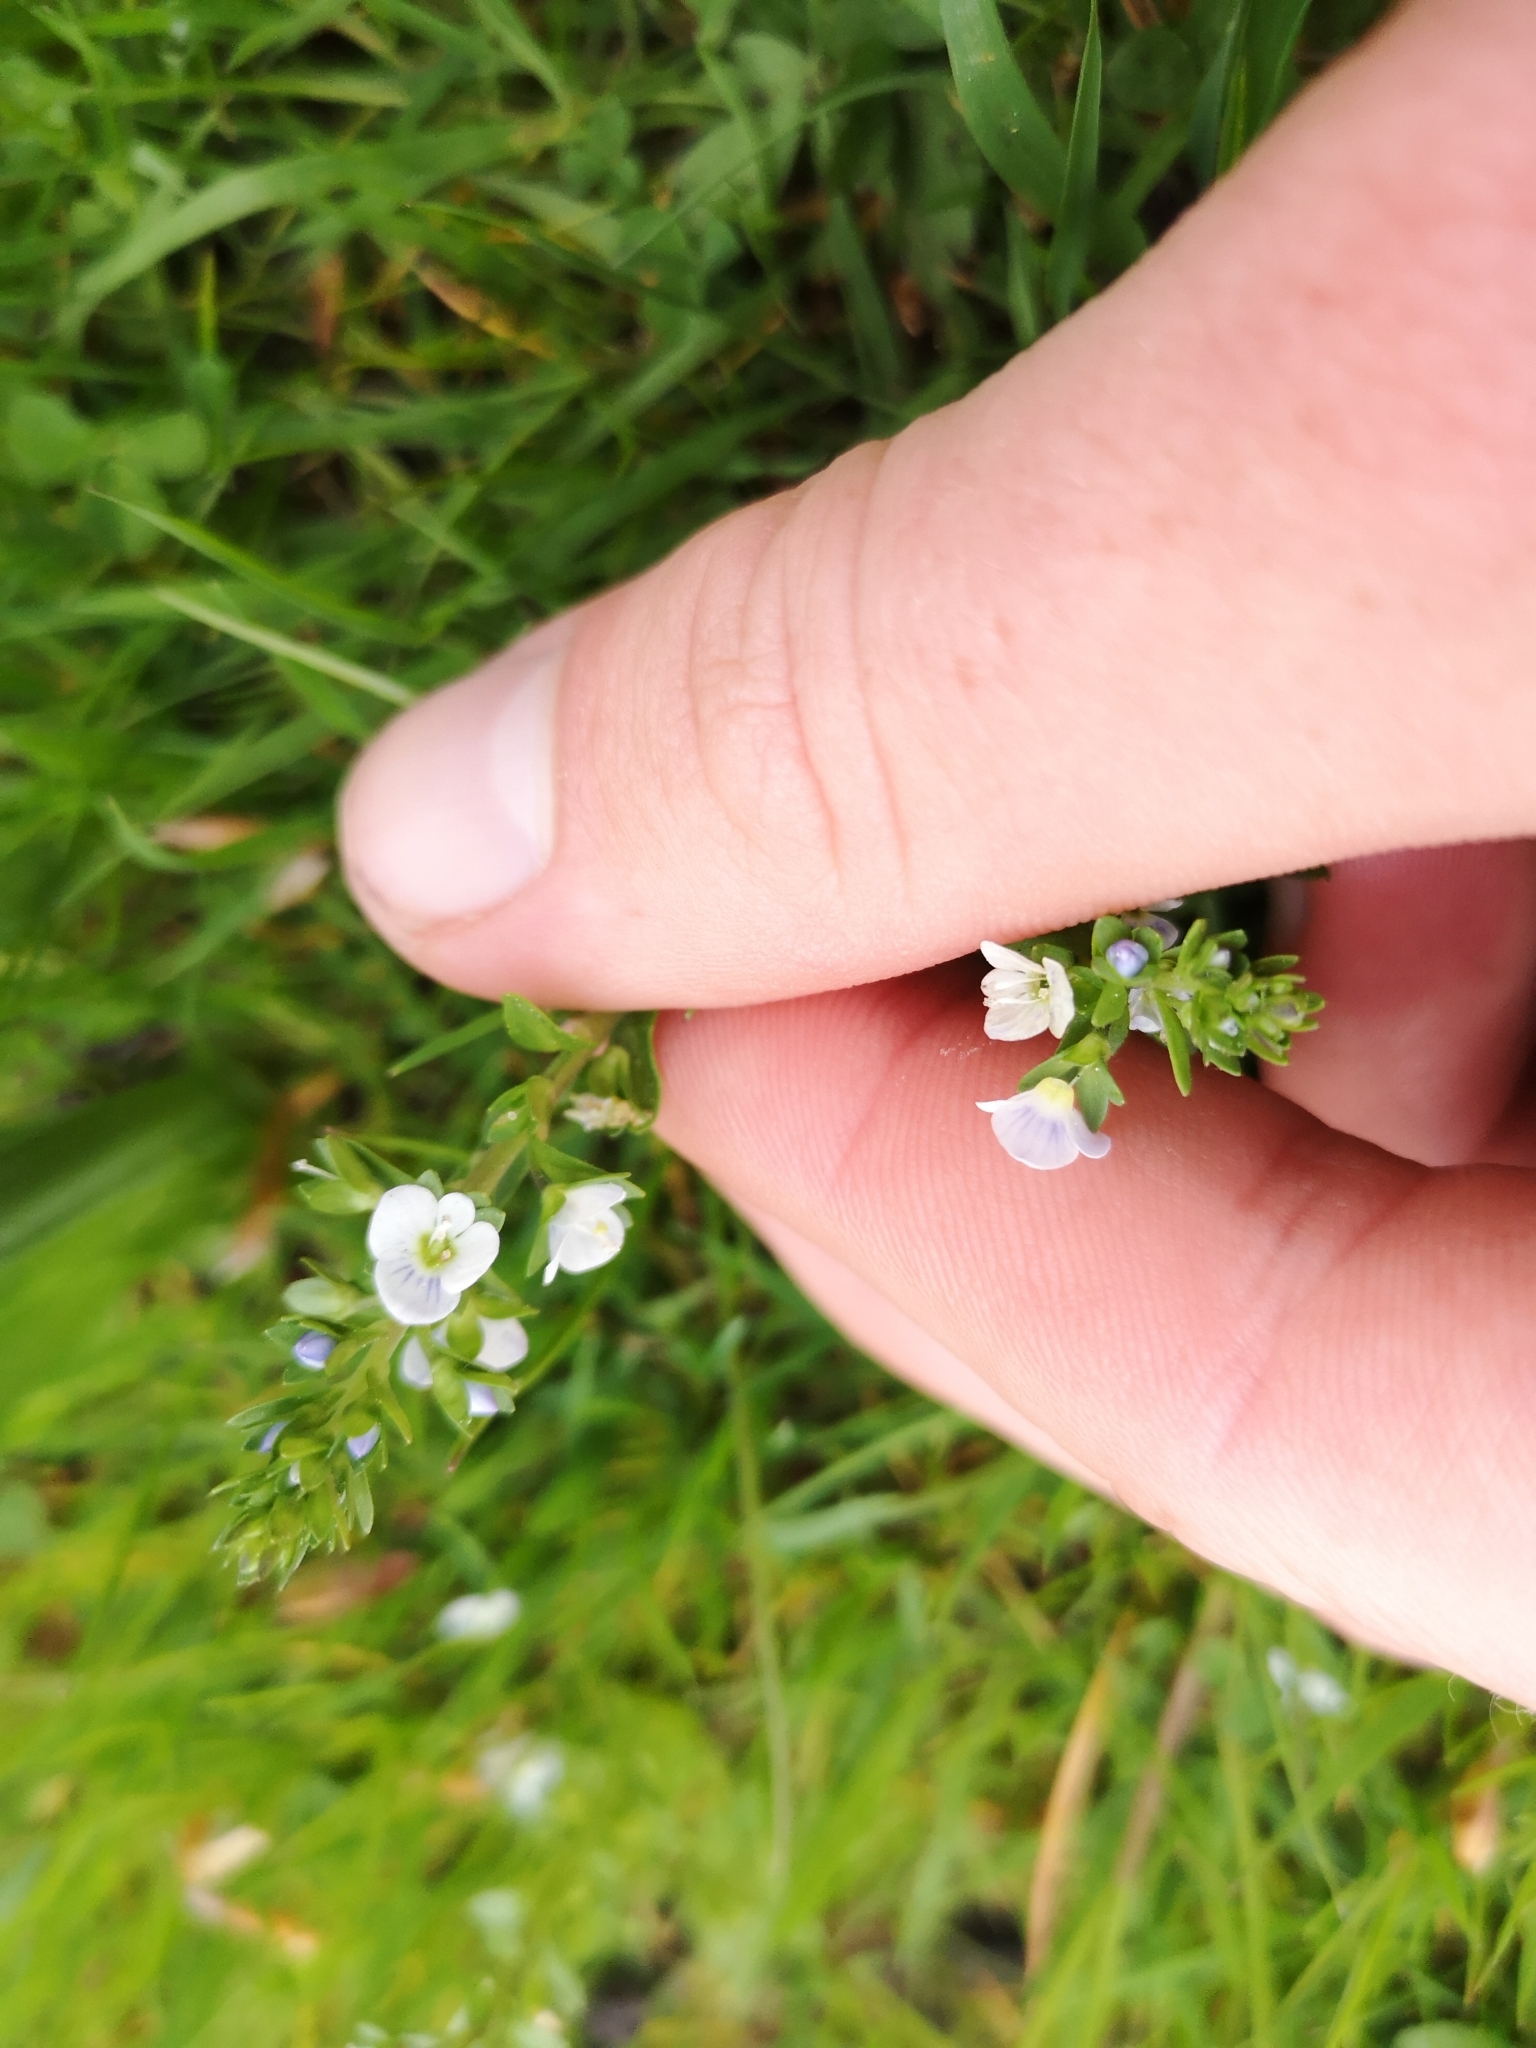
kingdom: Plantae
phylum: Tracheophyta
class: Magnoliopsida
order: Lamiales
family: Plantaginaceae
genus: Veronica
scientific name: Veronica serpyllifolia
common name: Thyme-leaved speedwell
